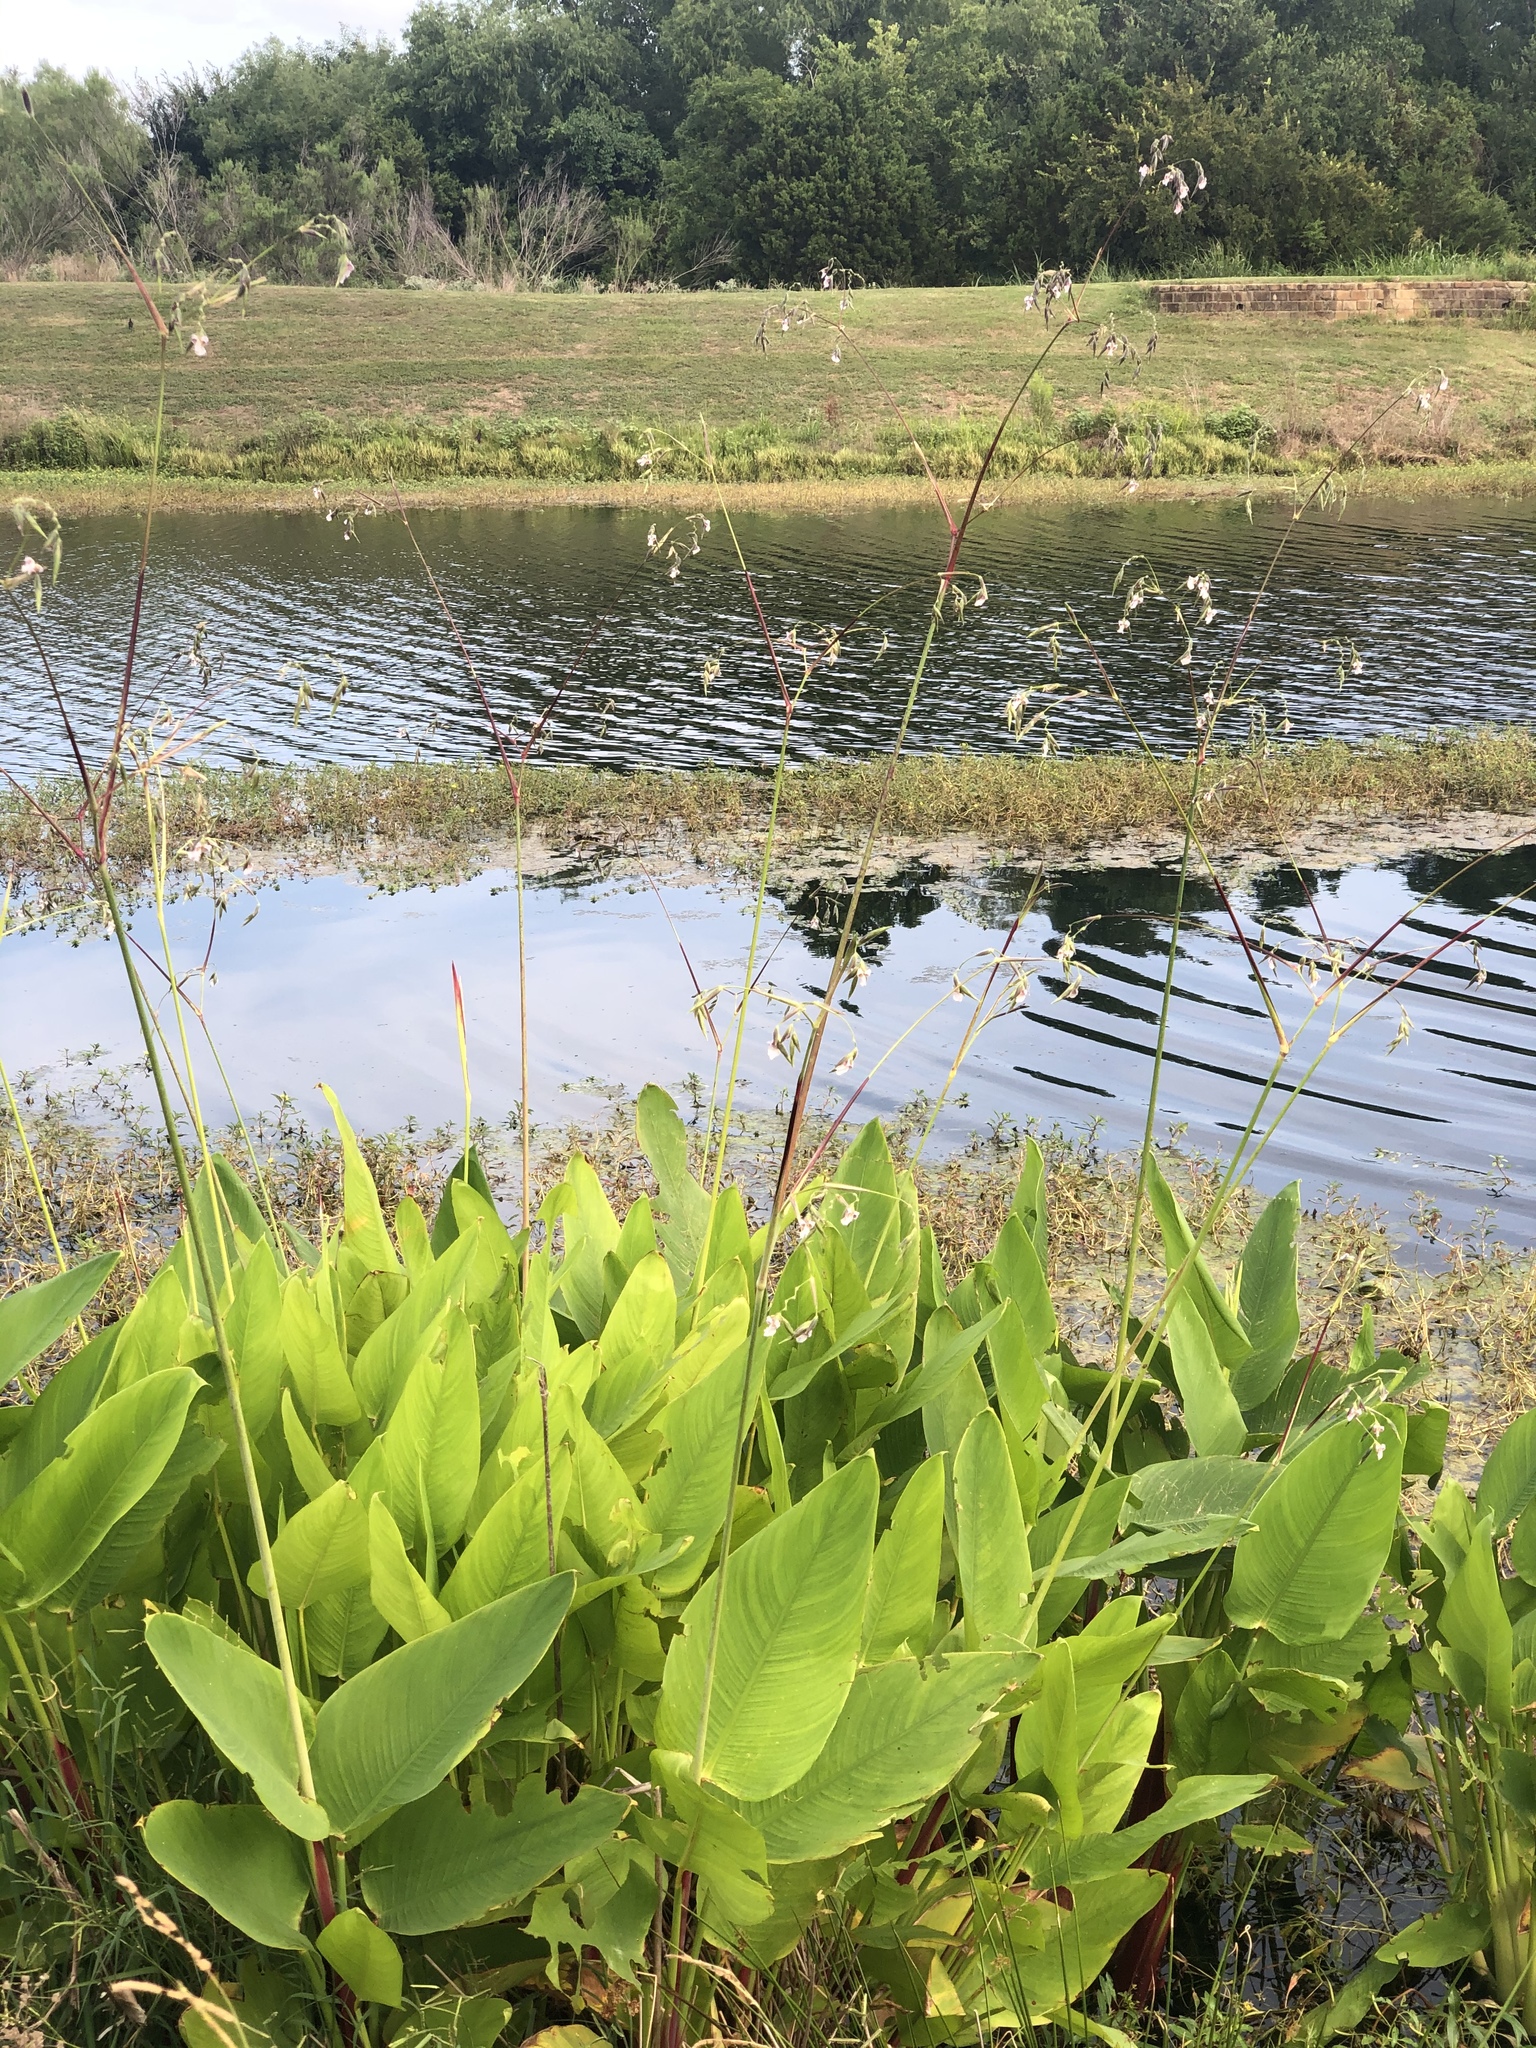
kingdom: Plantae
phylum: Tracheophyta
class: Liliopsida
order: Zingiberales
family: Marantaceae
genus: Thalia
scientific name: Thalia geniculata
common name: Arrowroot
